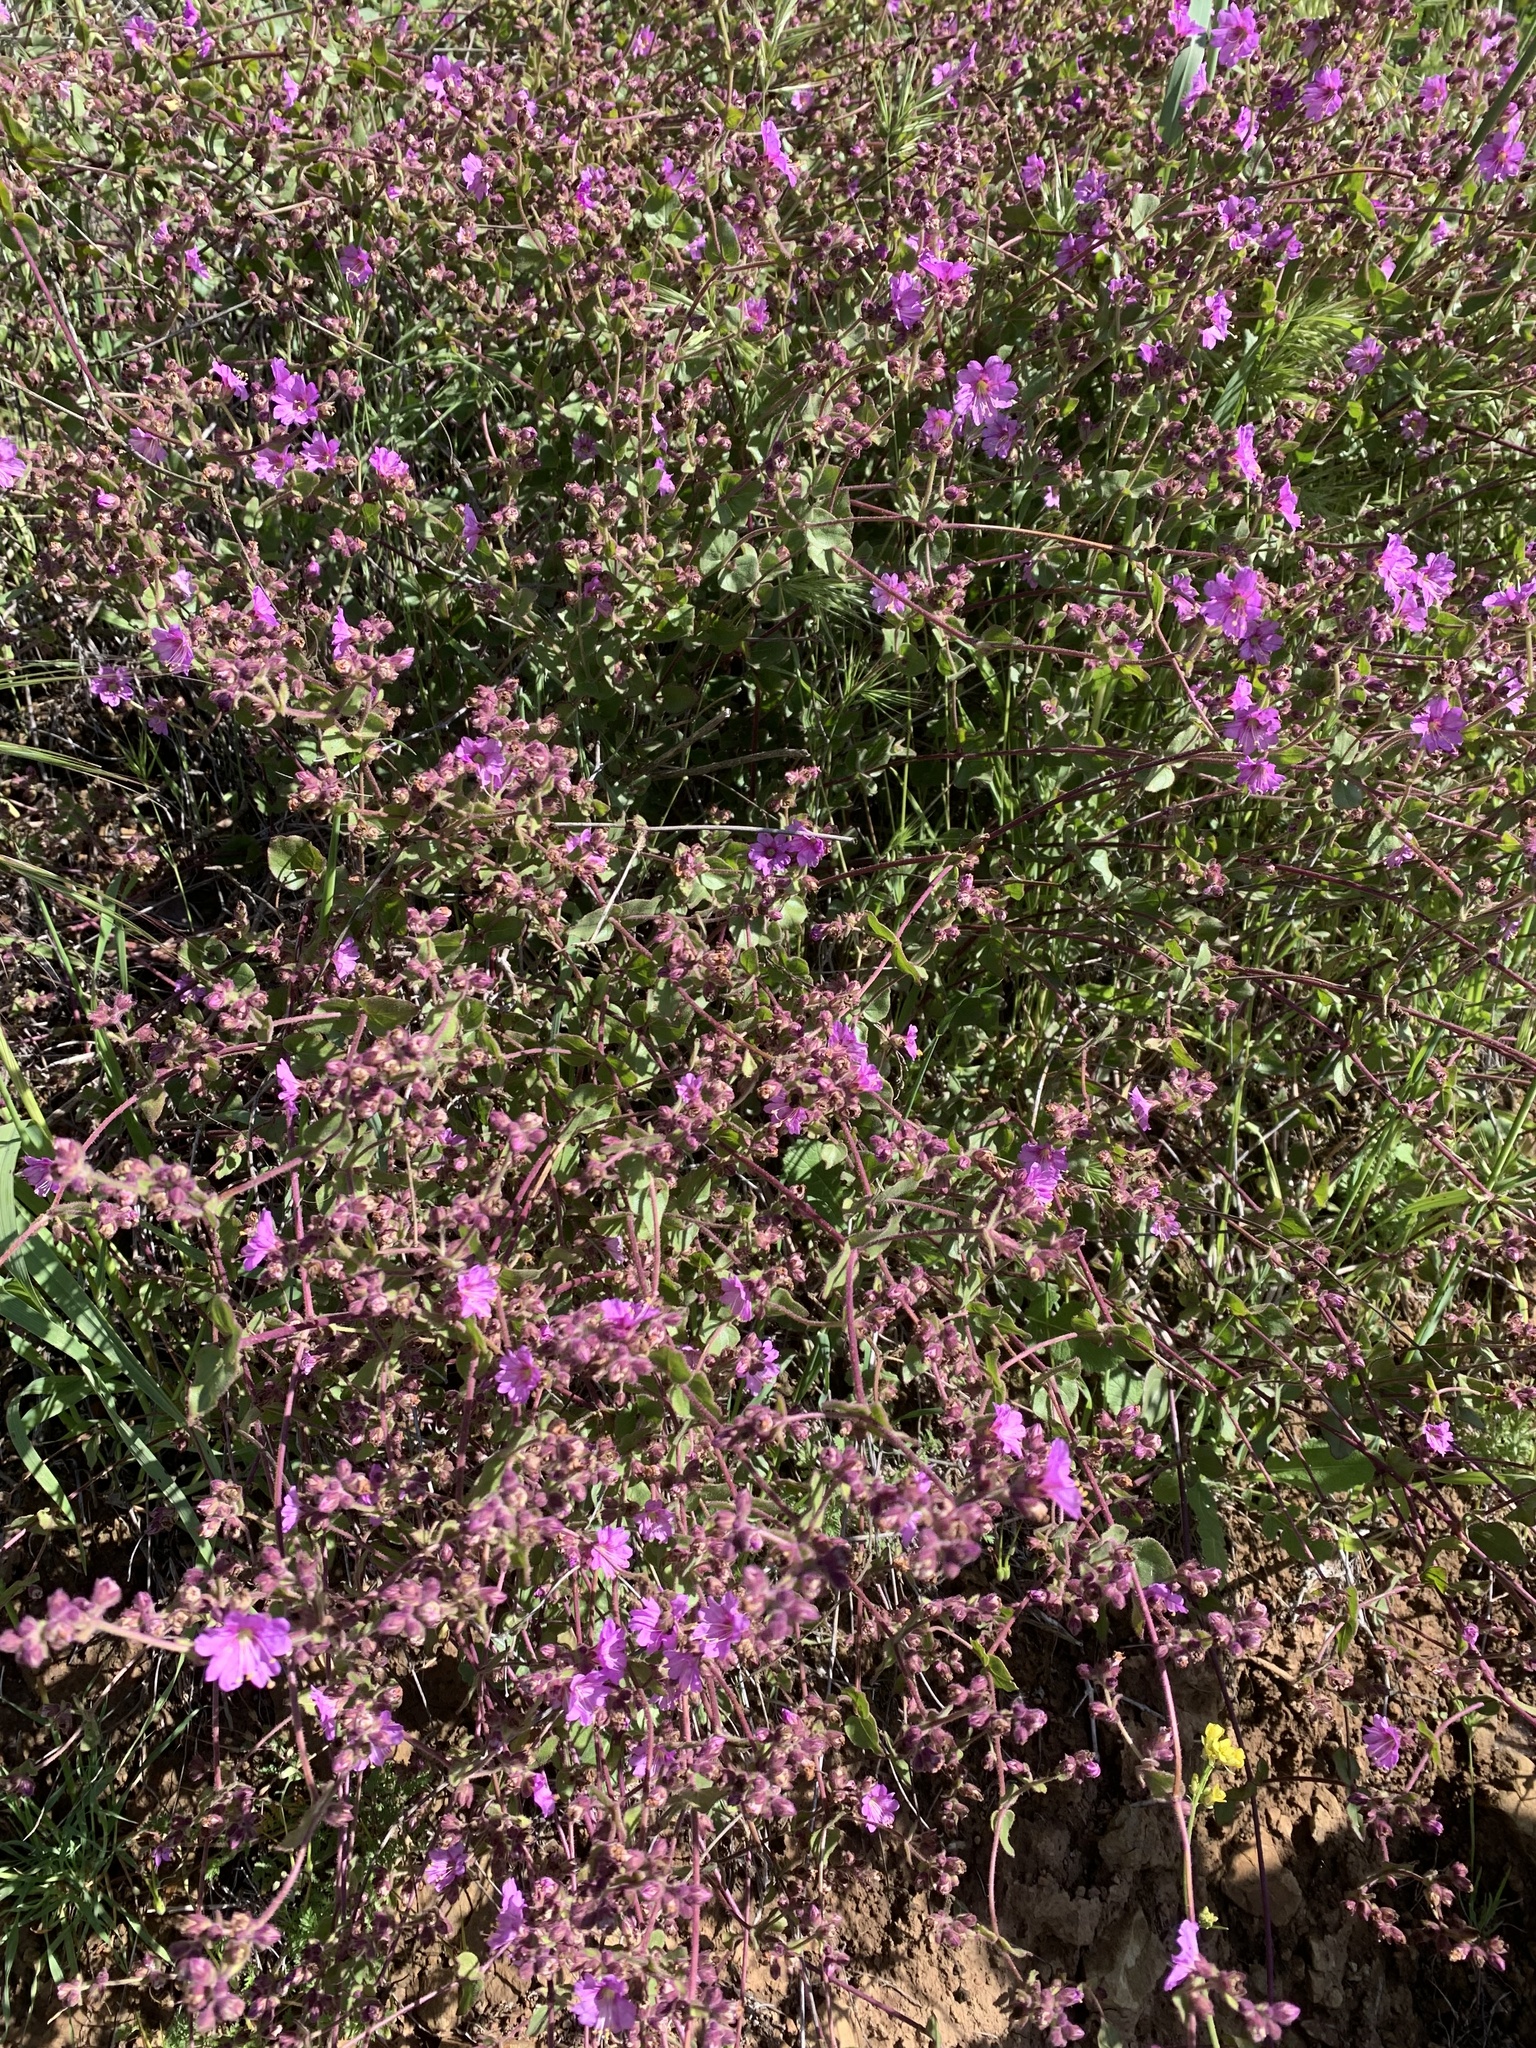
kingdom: Plantae
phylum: Tracheophyta
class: Magnoliopsida
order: Caryophyllales
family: Nyctaginaceae
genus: Mirabilis
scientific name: Mirabilis laevis
